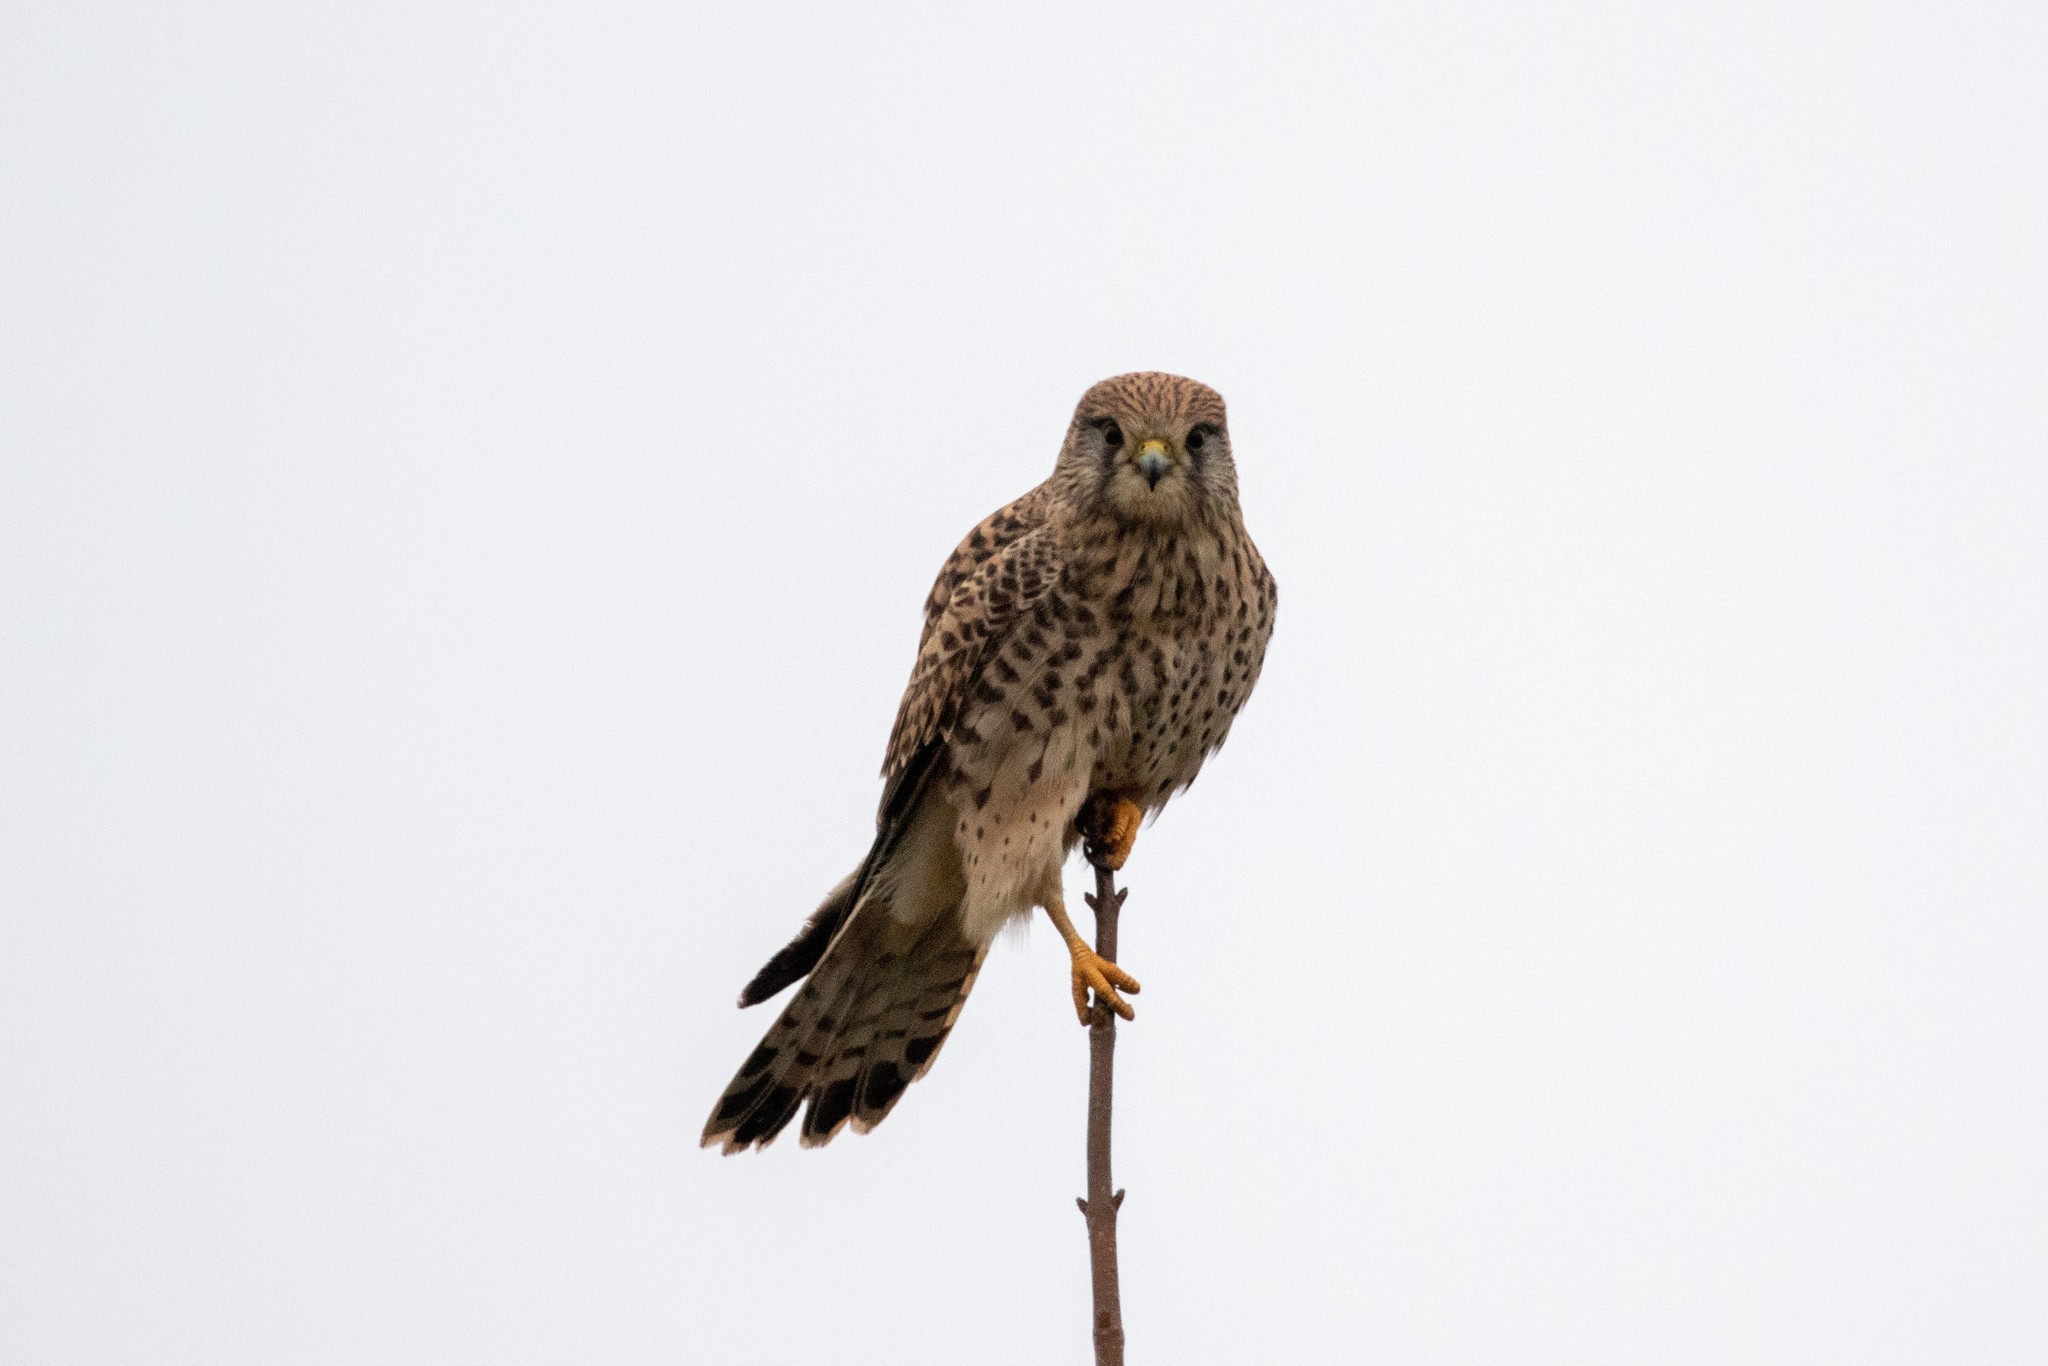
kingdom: Animalia
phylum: Chordata
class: Aves
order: Falconiformes
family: Falconidae
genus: Falco
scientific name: Falco tinnunculus
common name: Common kestrel
